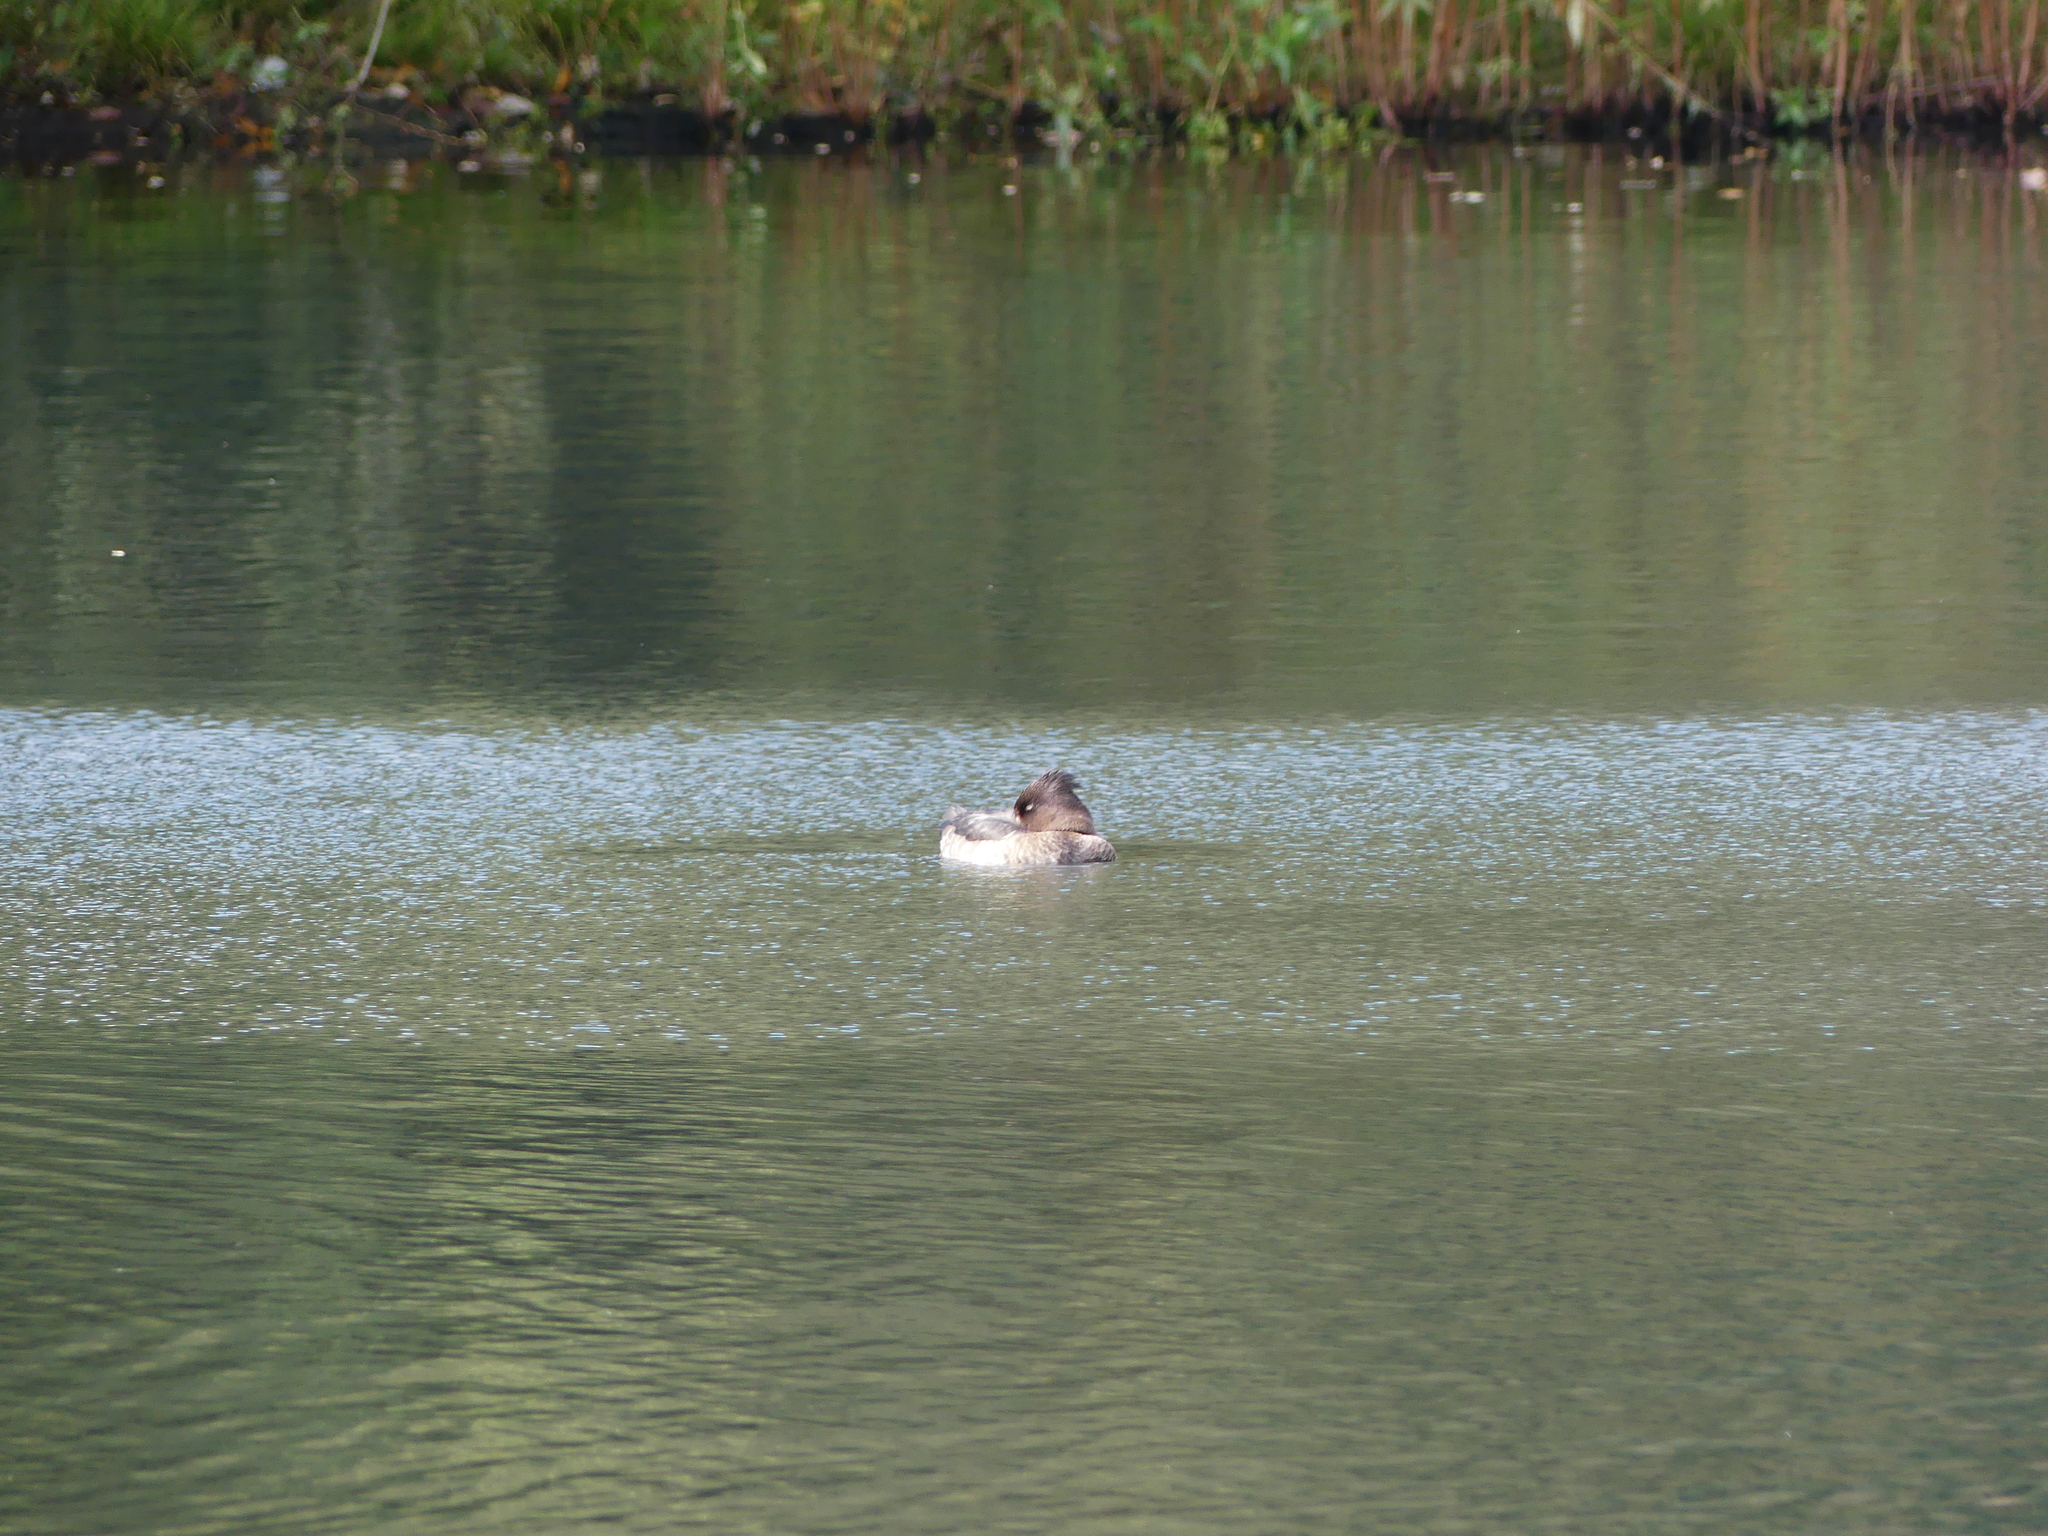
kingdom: Animalia
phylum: Chordata
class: Aves
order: Anseriformes
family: Anatidae
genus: Aythya
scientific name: Aythya fuligula
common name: Tufted duck
